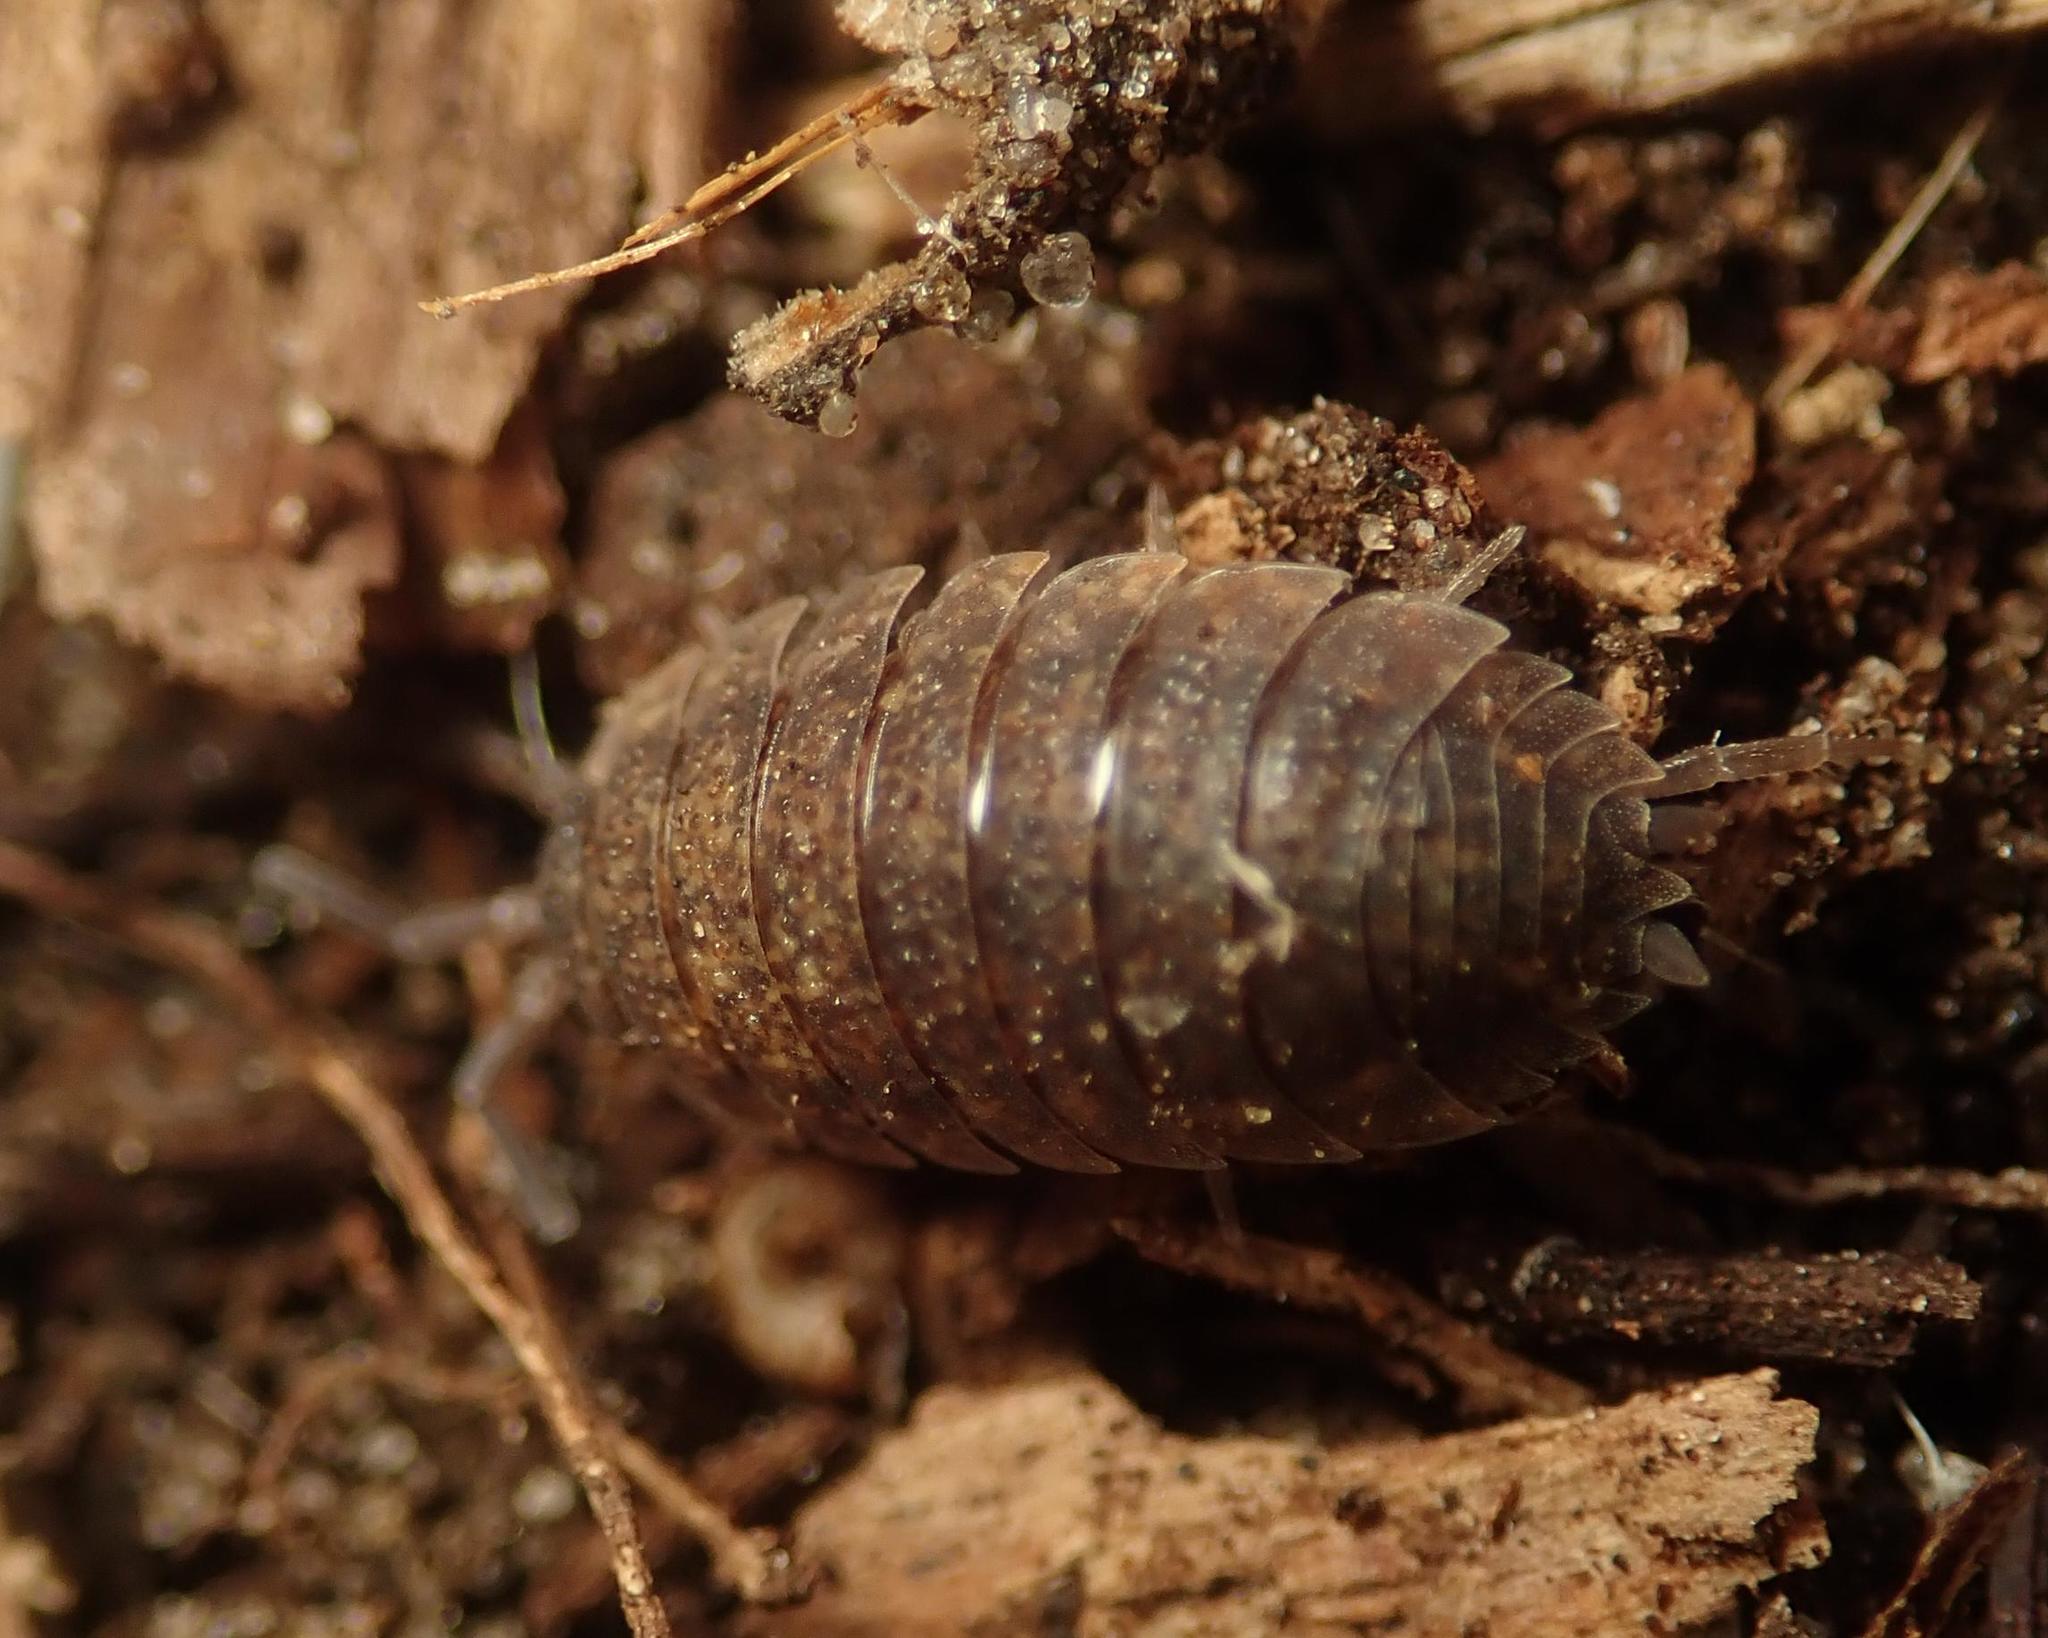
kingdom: Animalia
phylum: Arthropoda
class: Malacostraca
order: Isopoda
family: Porcellionidae
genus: Porcellio
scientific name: Porcellio scaber
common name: Common rough woodlouse
